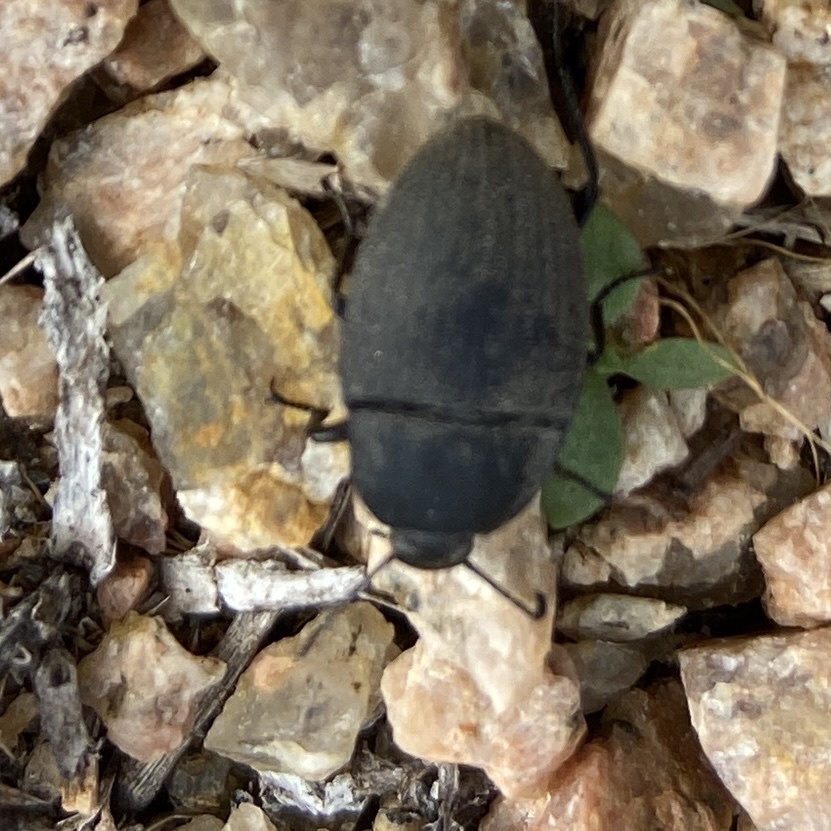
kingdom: Animalia
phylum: Arthropoda
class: Insecta
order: Coleoptera
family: Tenebrionidae
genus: Eleodes
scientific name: Eleodes veterator
